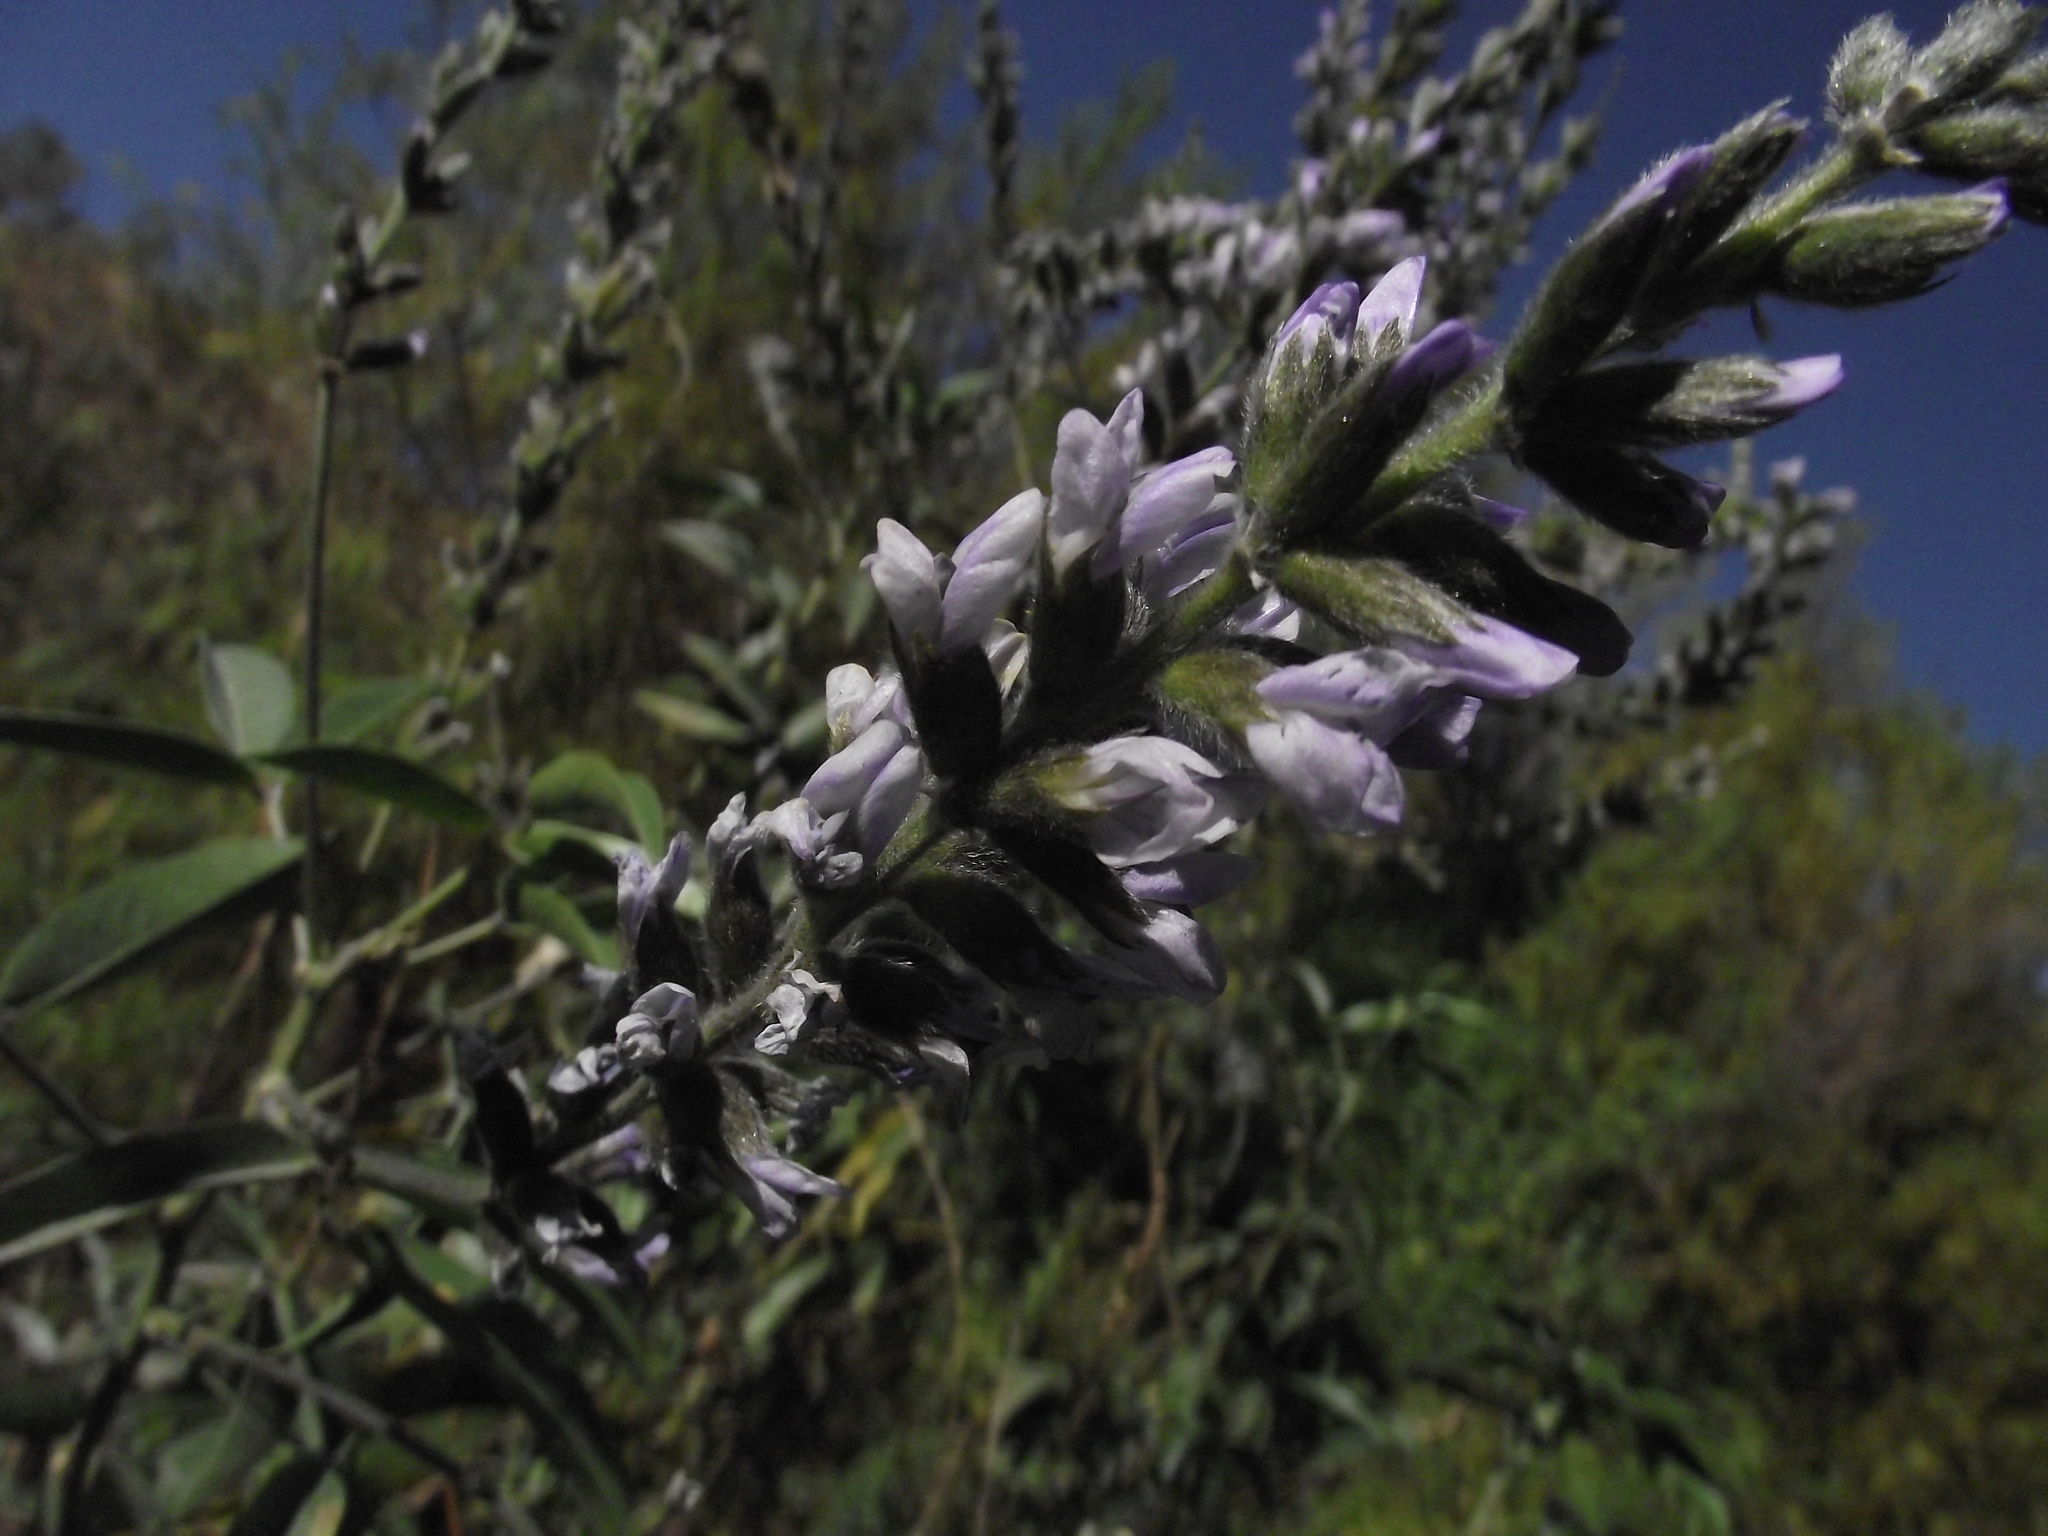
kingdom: Plantae
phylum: Tracheophyta
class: Magnoliopsida
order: Fabales
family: Fabaceae
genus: Psoralea
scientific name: Psoralea Otholobium glandulosum
